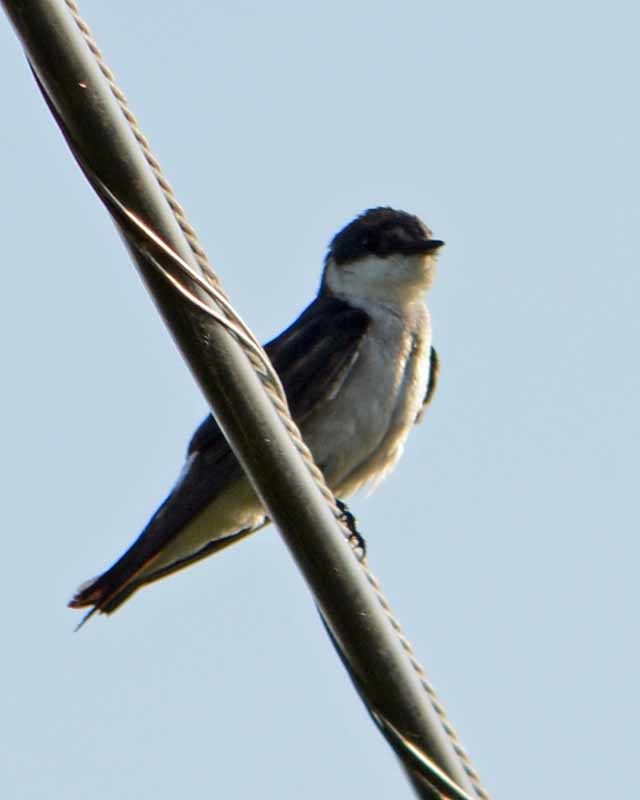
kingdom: Animalia
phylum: Chordata
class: Aves
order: Passeriformes
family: Hirundinidae
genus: Tachycineta
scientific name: Tachycineta albilinea
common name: Mangrove swallow
